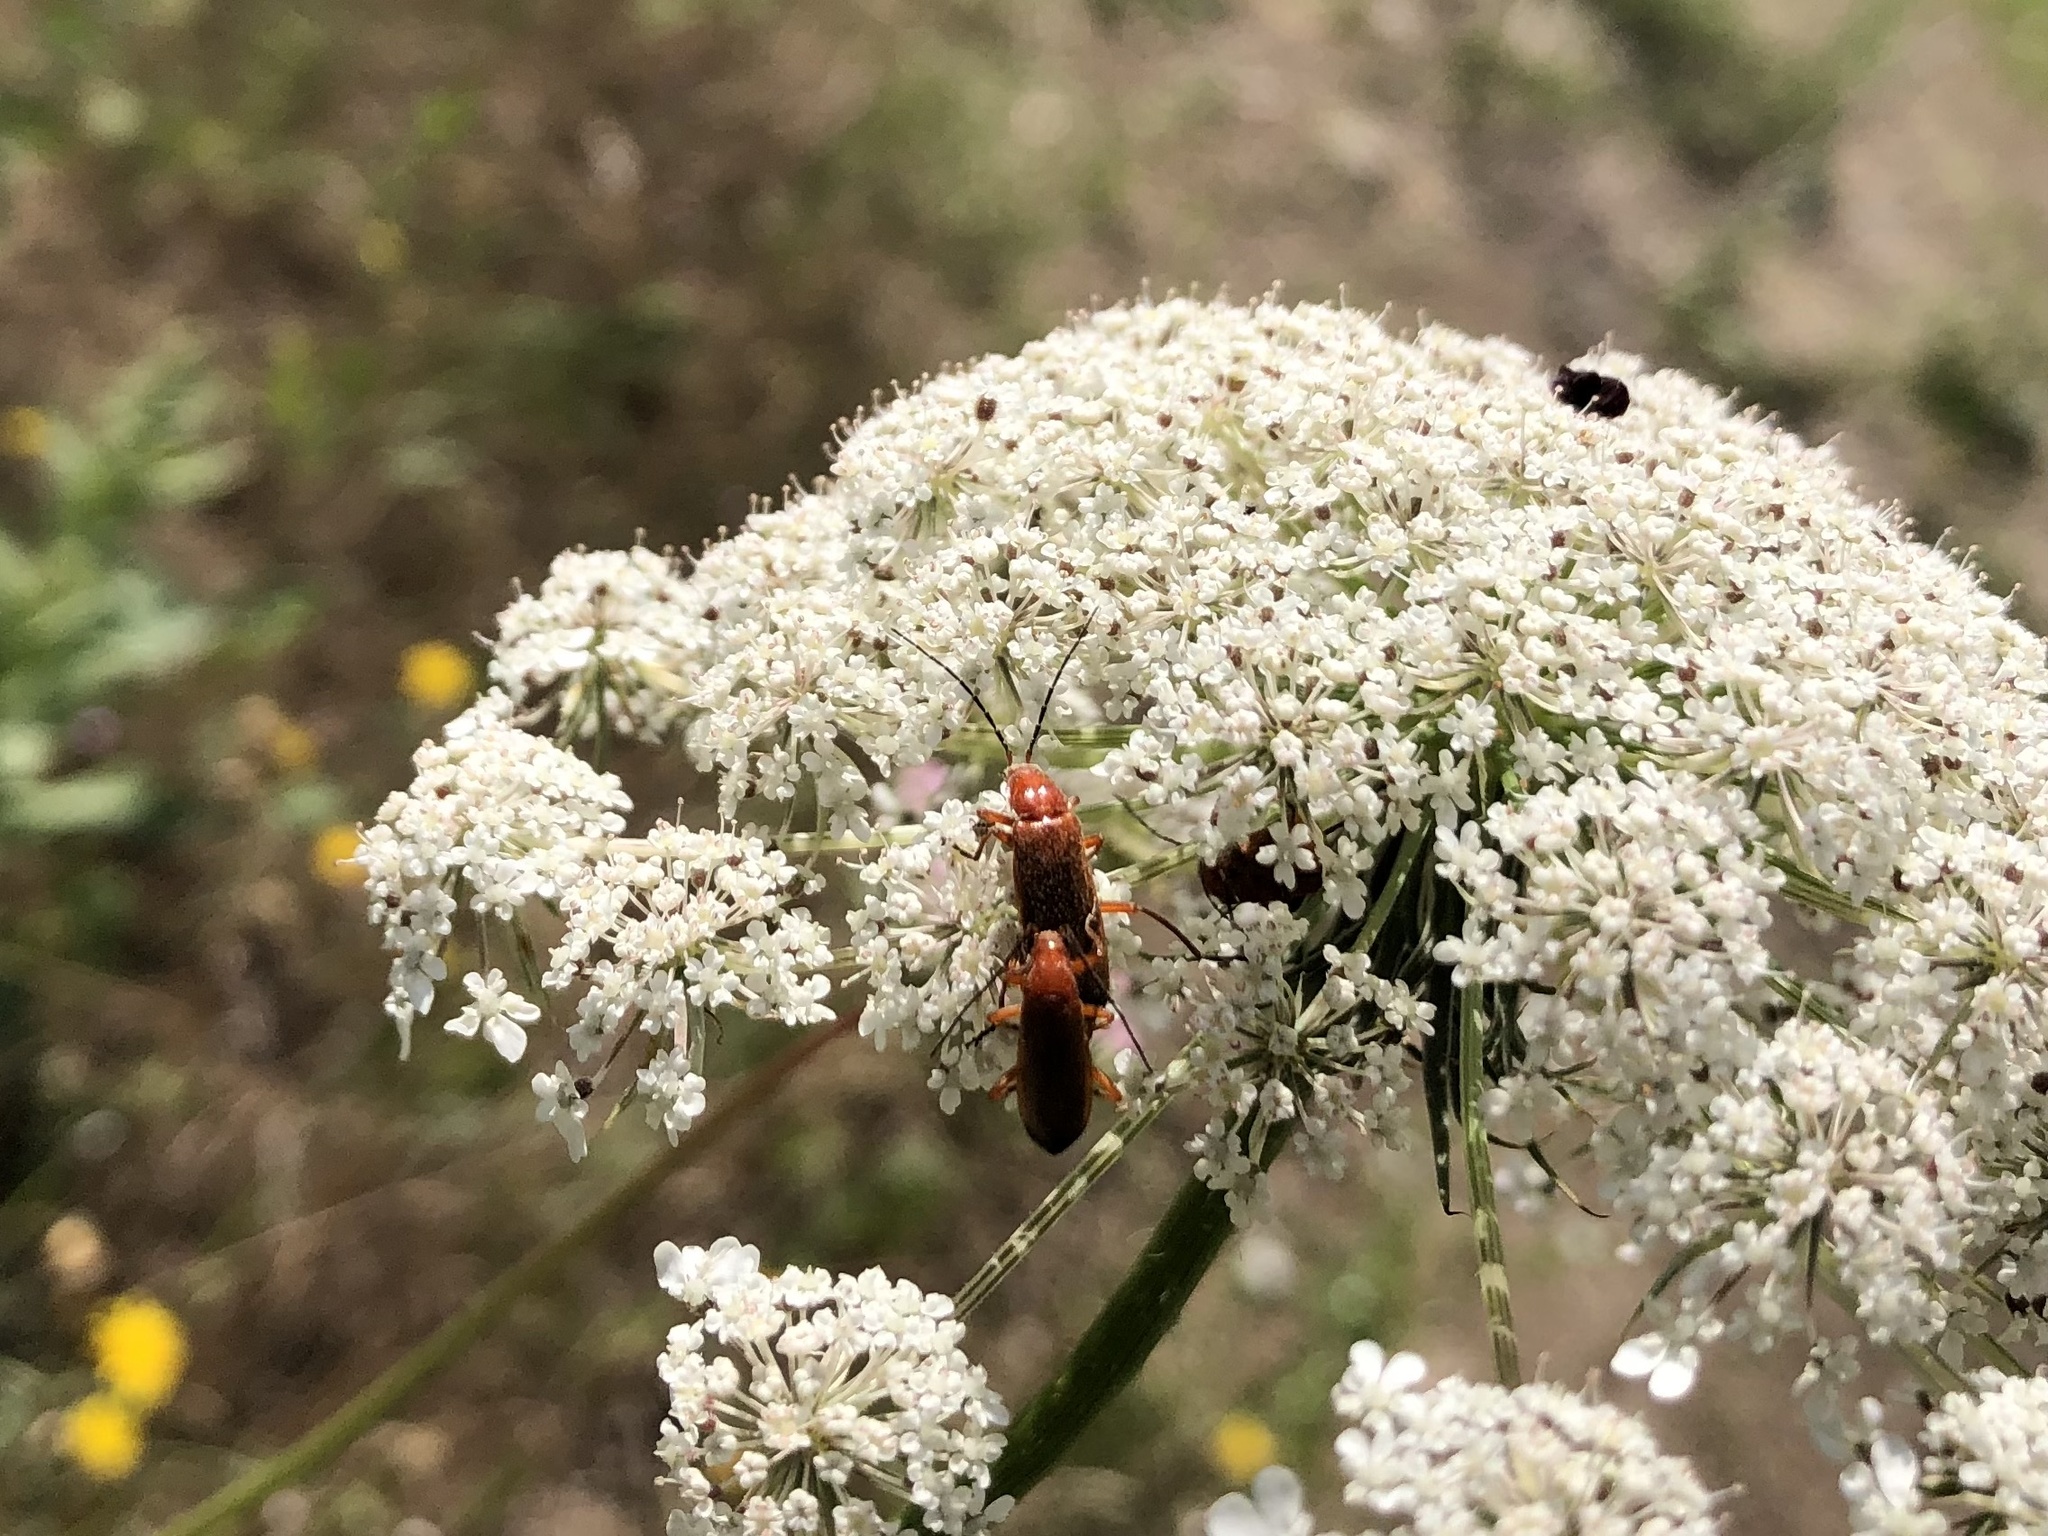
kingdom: Animalia
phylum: Arthropoda
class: Insecta
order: Coleoptera
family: Cantharidae
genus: Rhagonycha
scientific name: Rhagonycha fulva
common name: Common red soldier beetle
